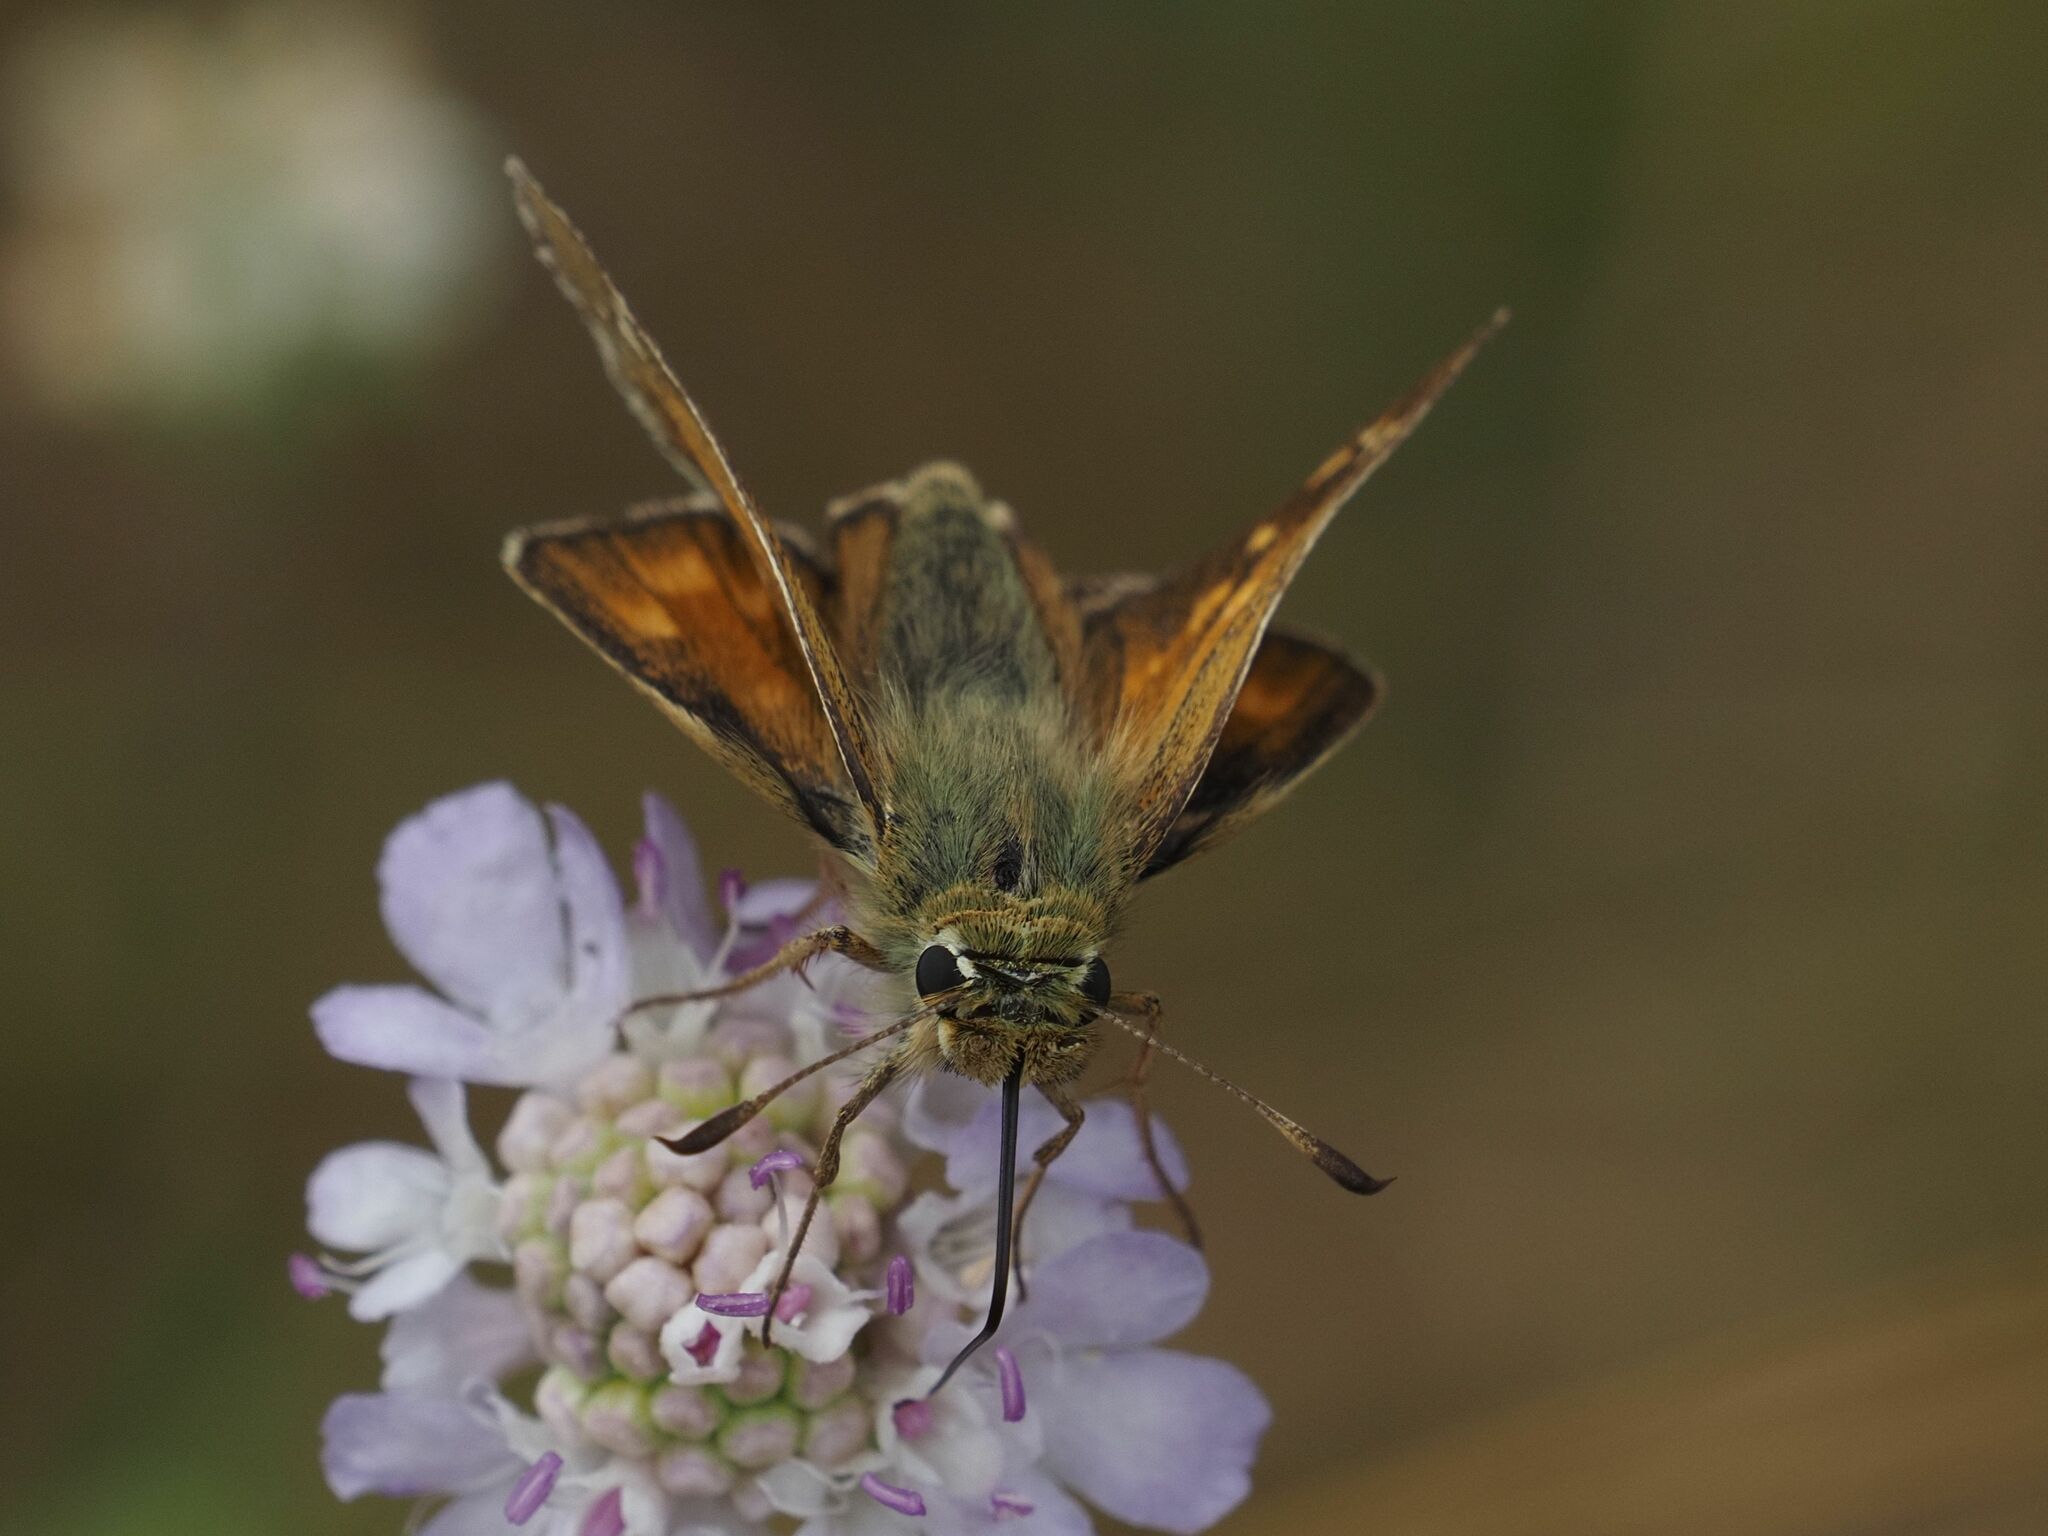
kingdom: Animalia
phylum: Arthropoda
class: Insecta
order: Lepidoptera
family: Hesperiidae
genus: Hesperia
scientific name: Hesperia comma
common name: Common branded skipper
